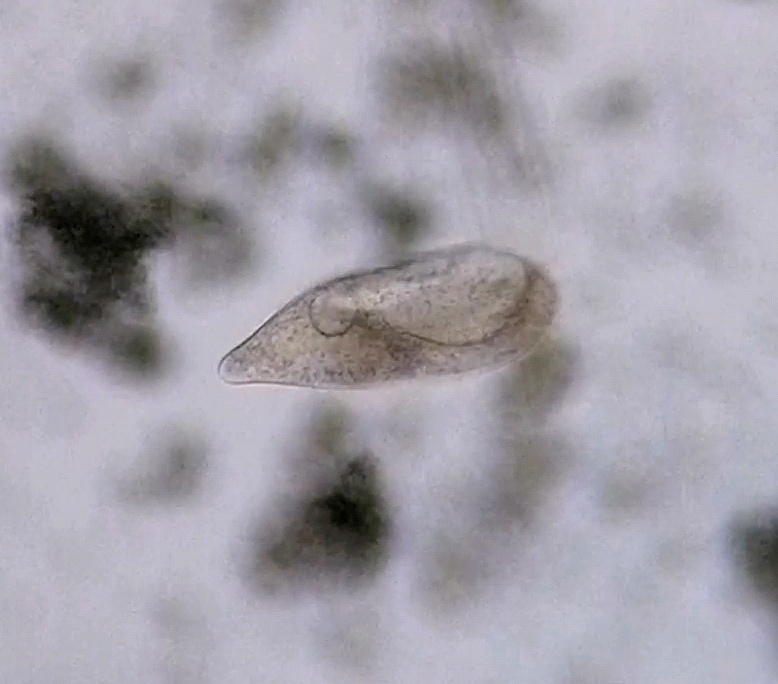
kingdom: Chromista
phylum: Ciliophora
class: Oligohymenophorea
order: Hymenostomatida
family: Turaniellidae
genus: Turaniella
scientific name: Turaniella vitrea
